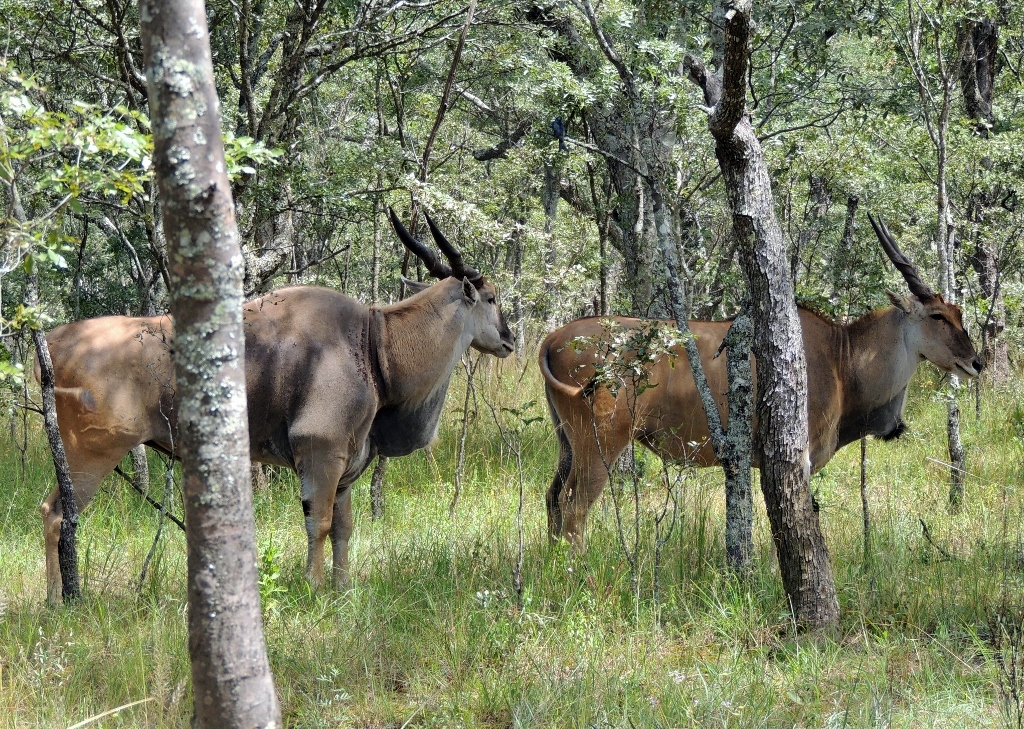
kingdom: Animalia
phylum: Chordata
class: Mammalia
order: Artiodactyla
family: Bovidae
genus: Taurotragus
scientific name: Taurotragus oryx
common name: Common eland
